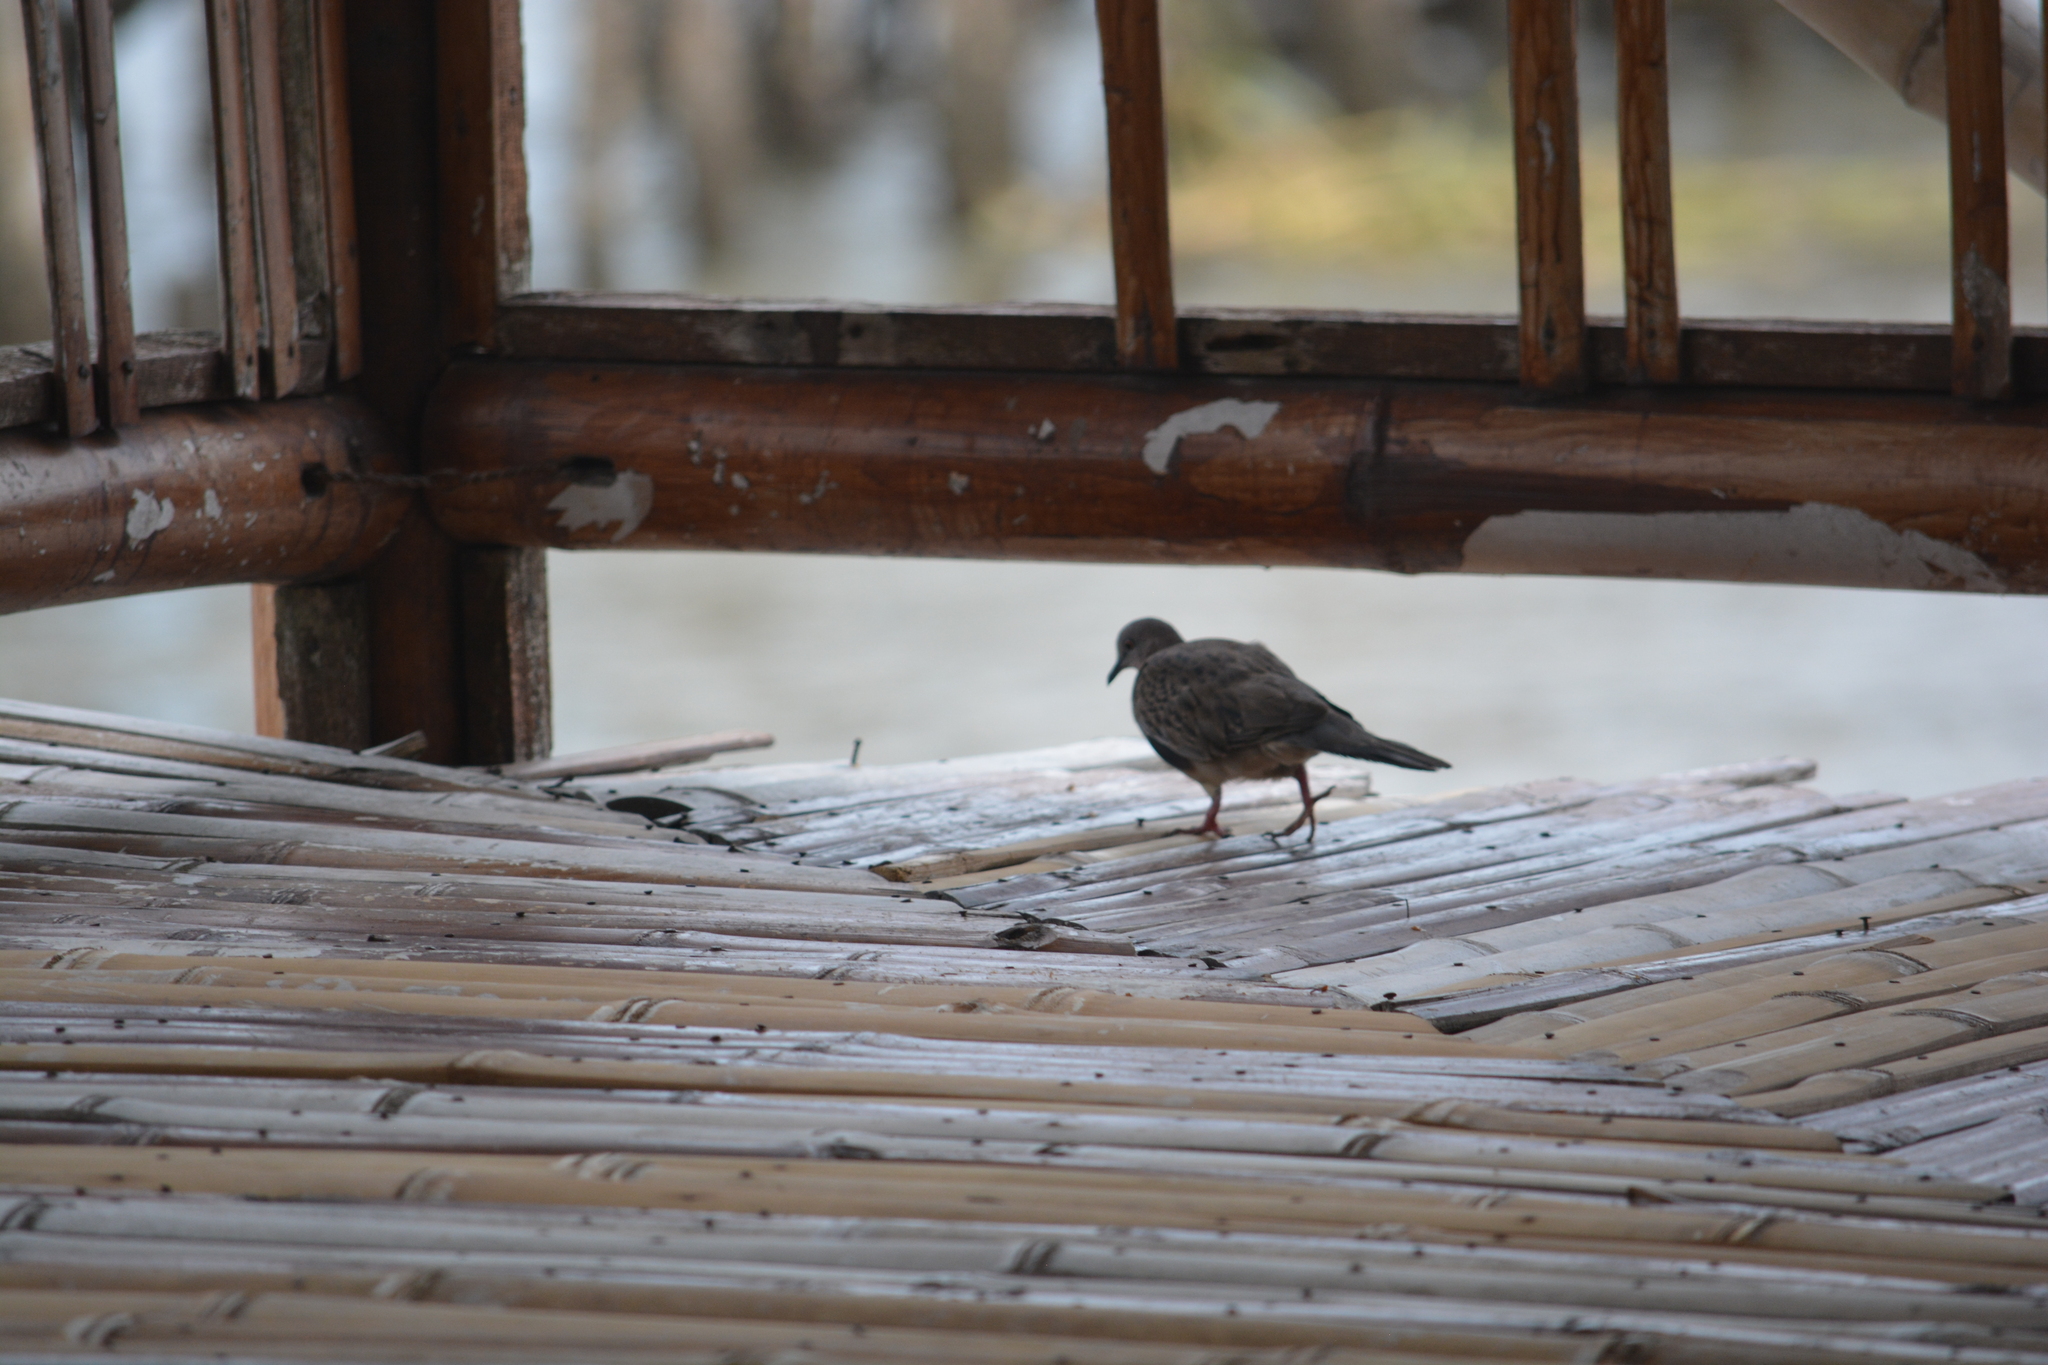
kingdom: Animalia
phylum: Chordata
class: Aves
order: Columbiformes
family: Columbidae
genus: Spilopelia
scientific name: Spilopelia chinensis
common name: Spotted dove
